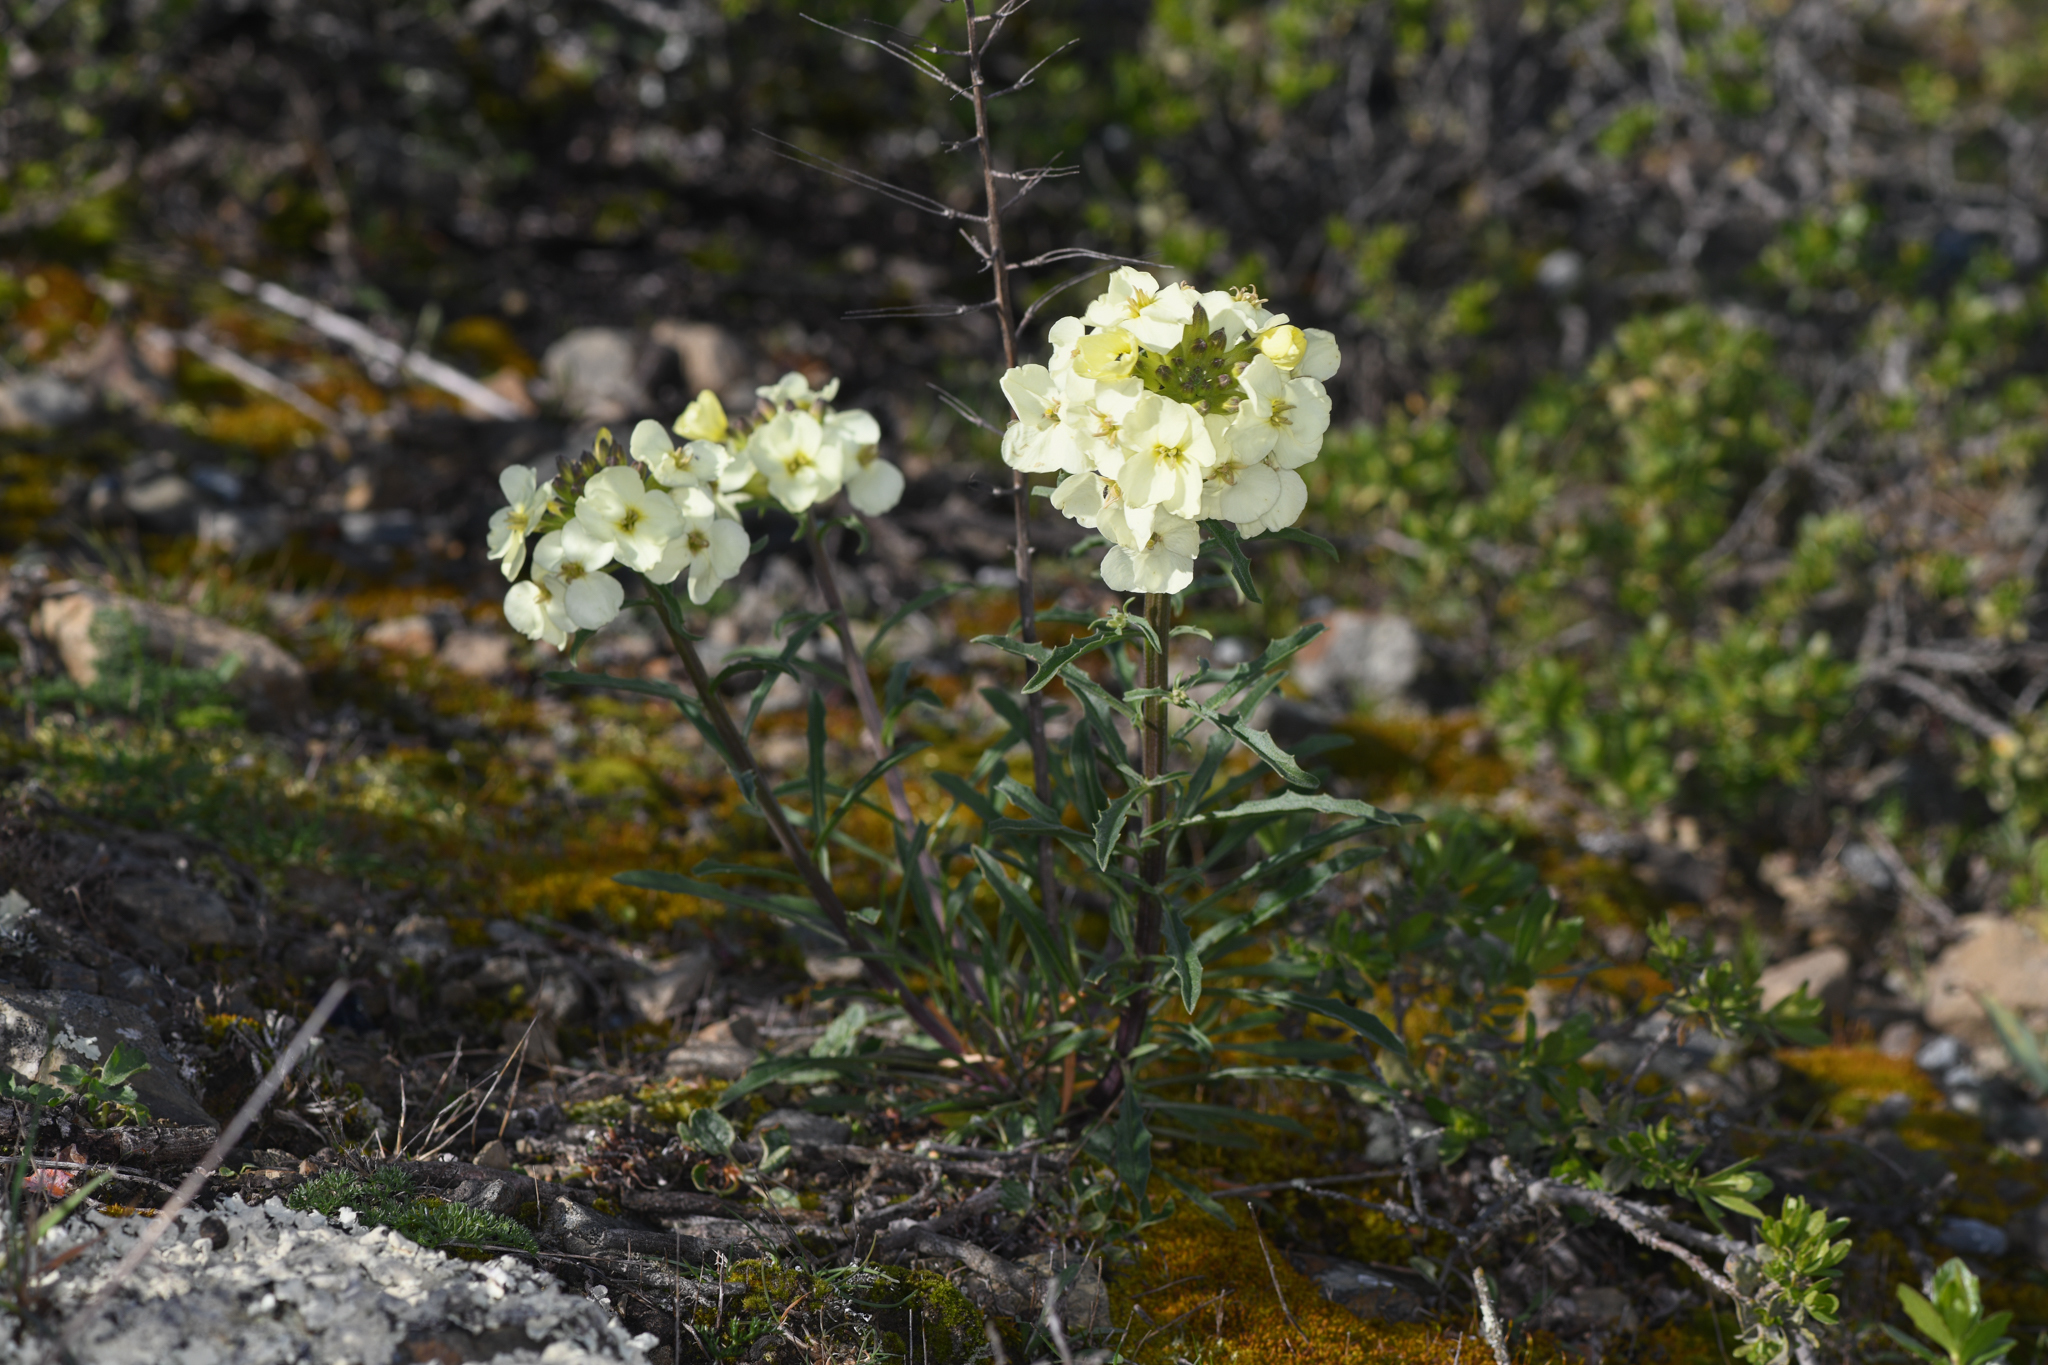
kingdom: Plantae
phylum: Tracheophyta
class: Magnoliopsida
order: Brassicales
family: Brassicaceae
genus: Erysimum
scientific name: Erysimum franciscanum
